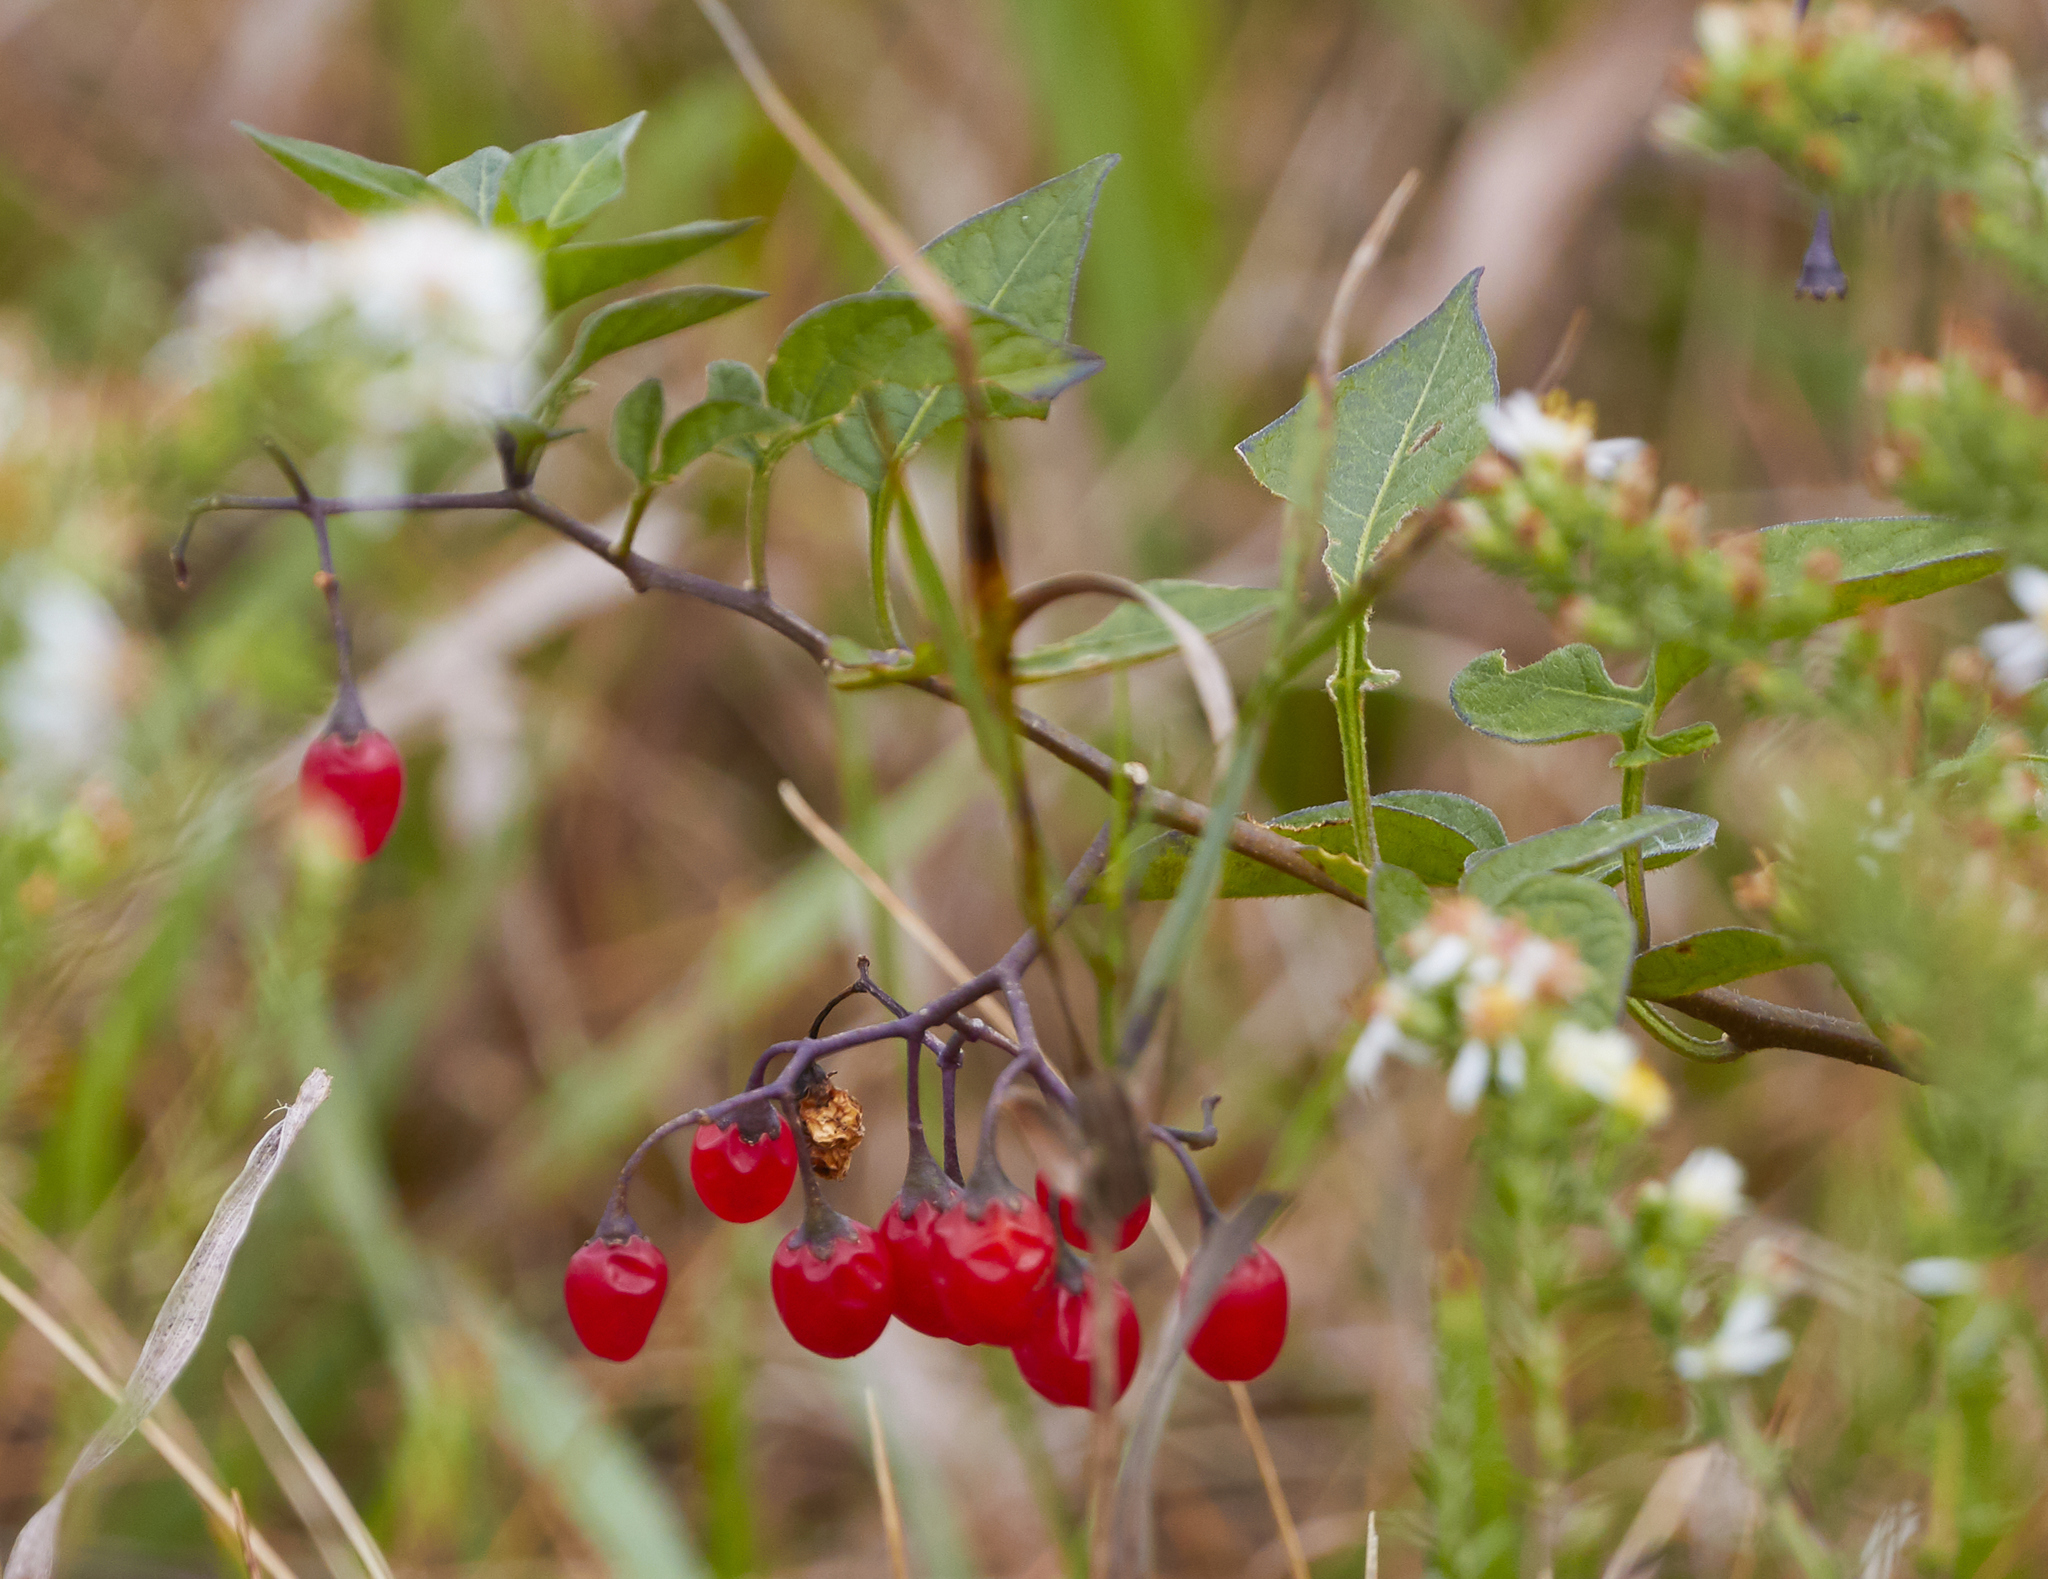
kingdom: Plantae
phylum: Tracheophyta
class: Magnoliopsida
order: Solanales
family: Solanaceae
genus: Solanum
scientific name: Solanum dulcamara
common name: Climbing nightshade
